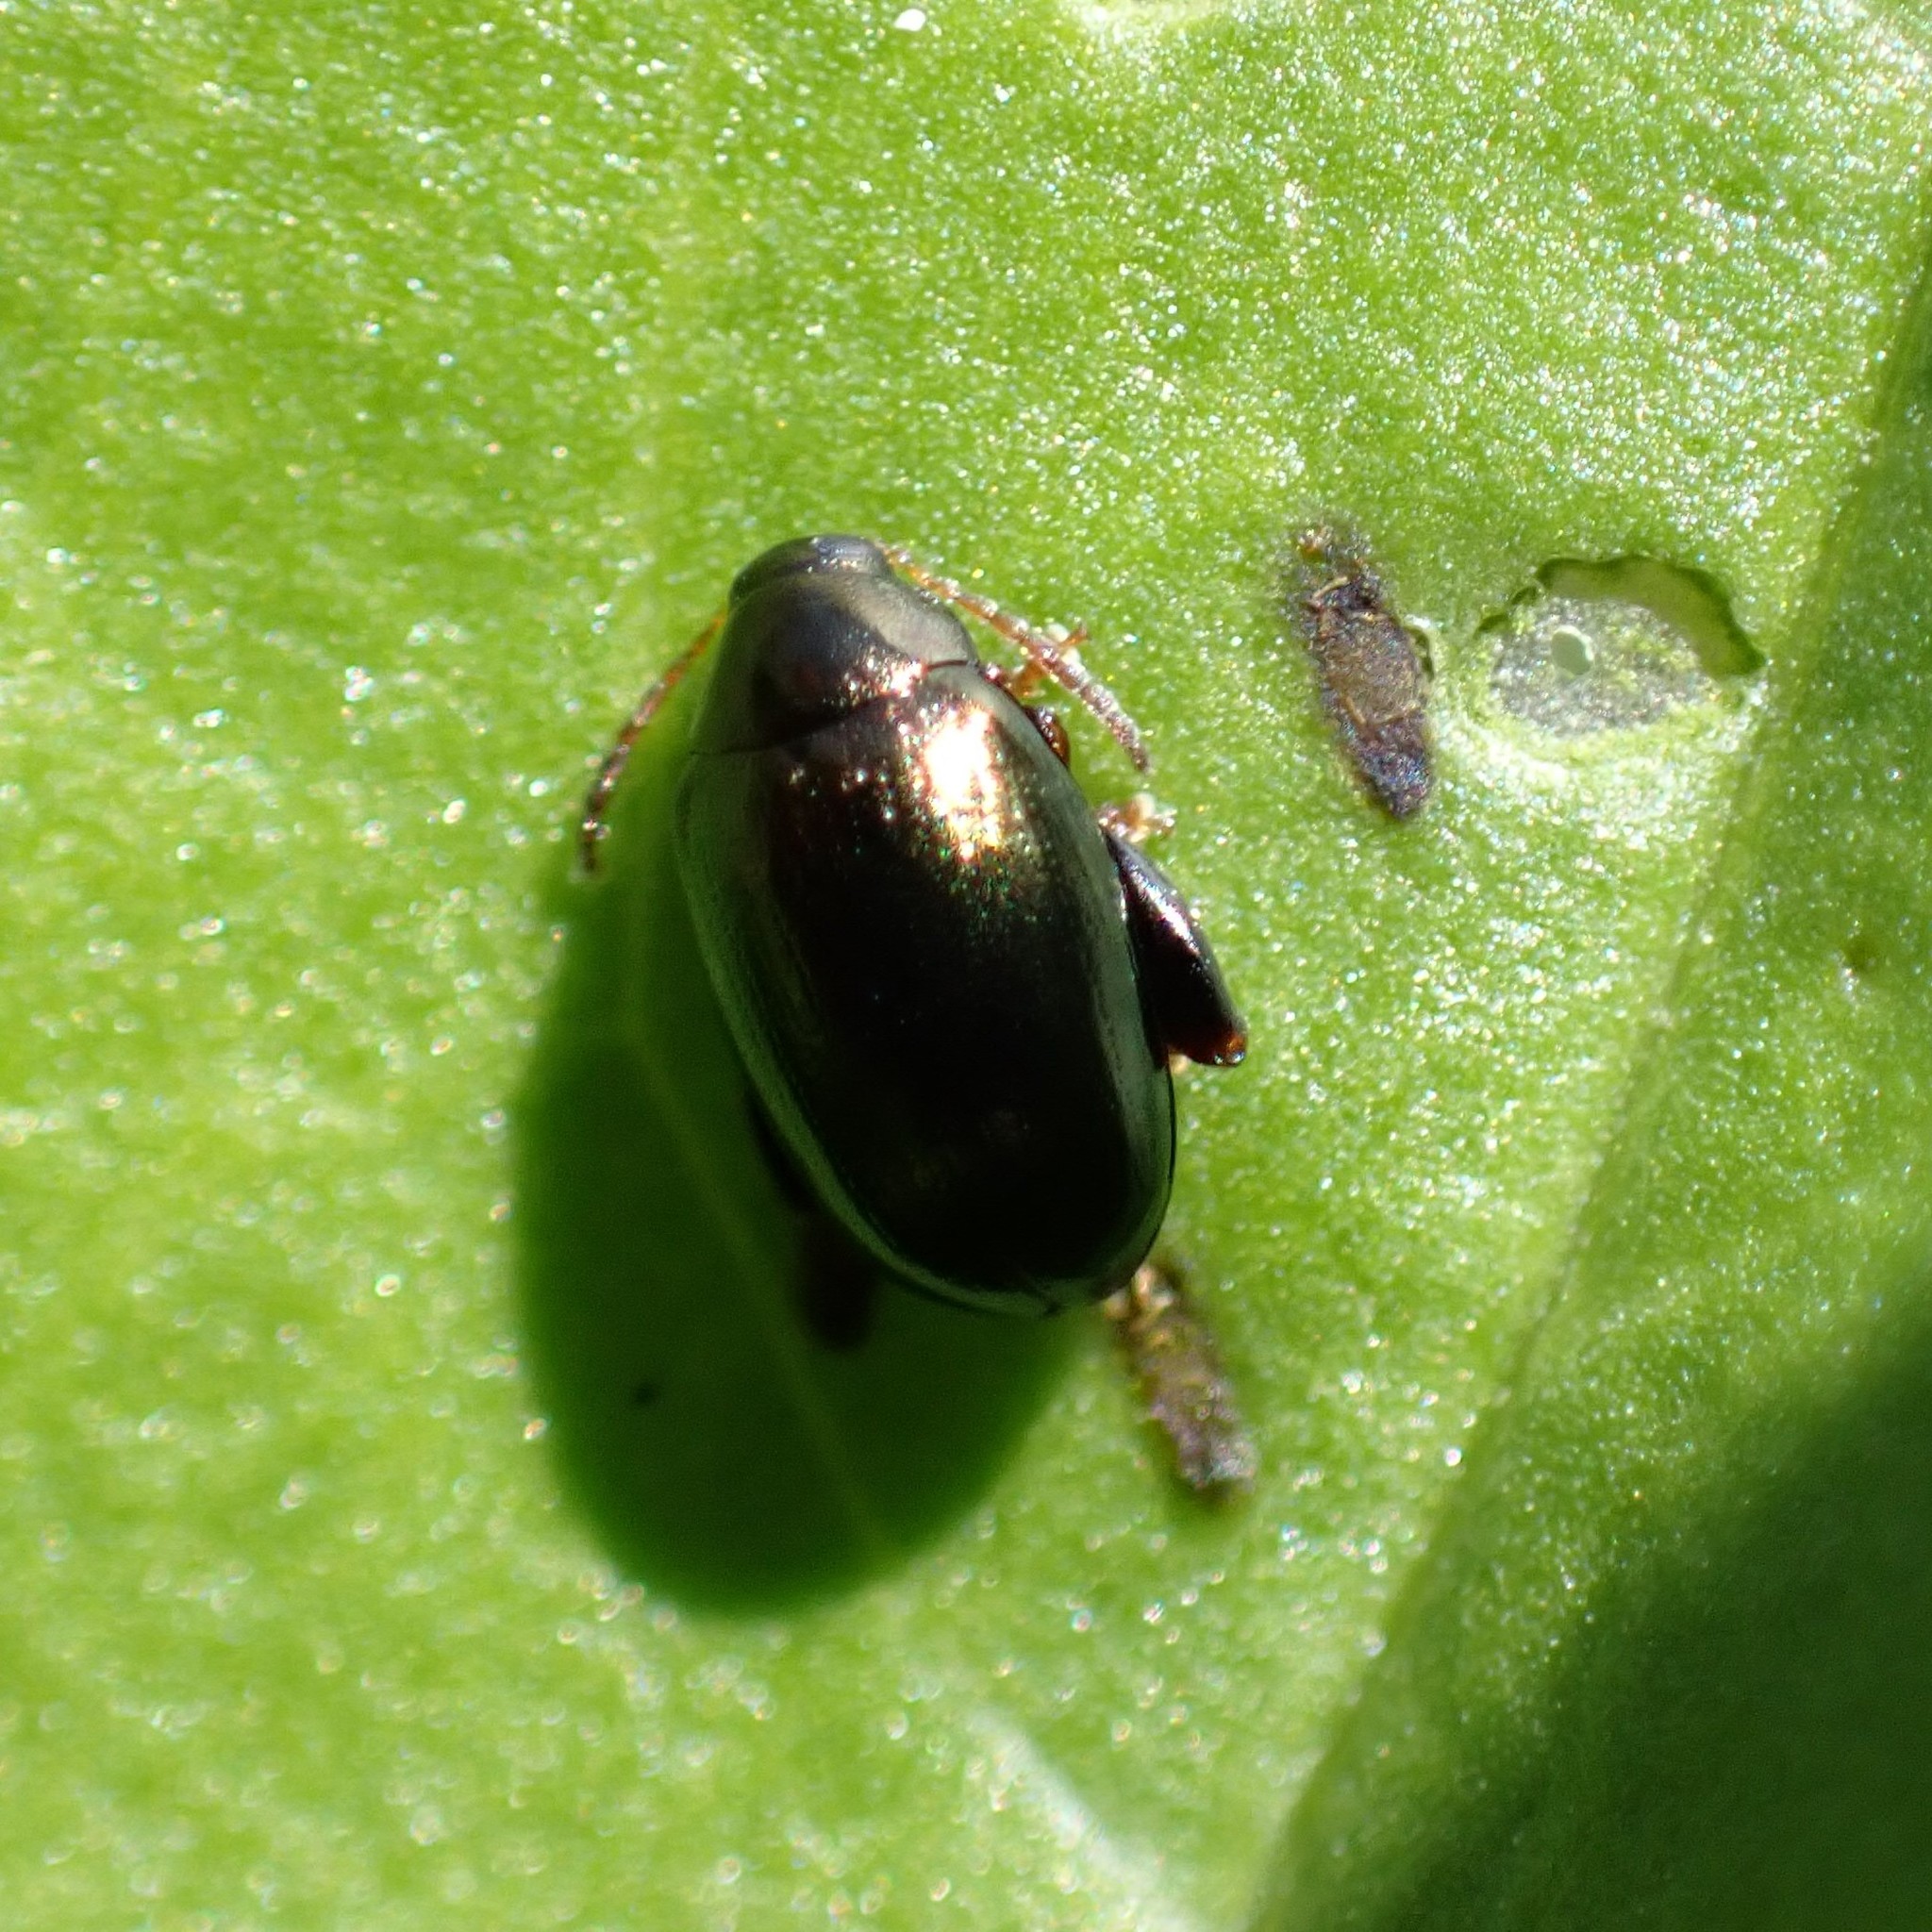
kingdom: Animalia
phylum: Arthropoda
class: Insecta
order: Coleoptera
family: Chrysomelidae
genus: Dibolia
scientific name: Dibolia borealis
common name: Northern plantain flea beetle
